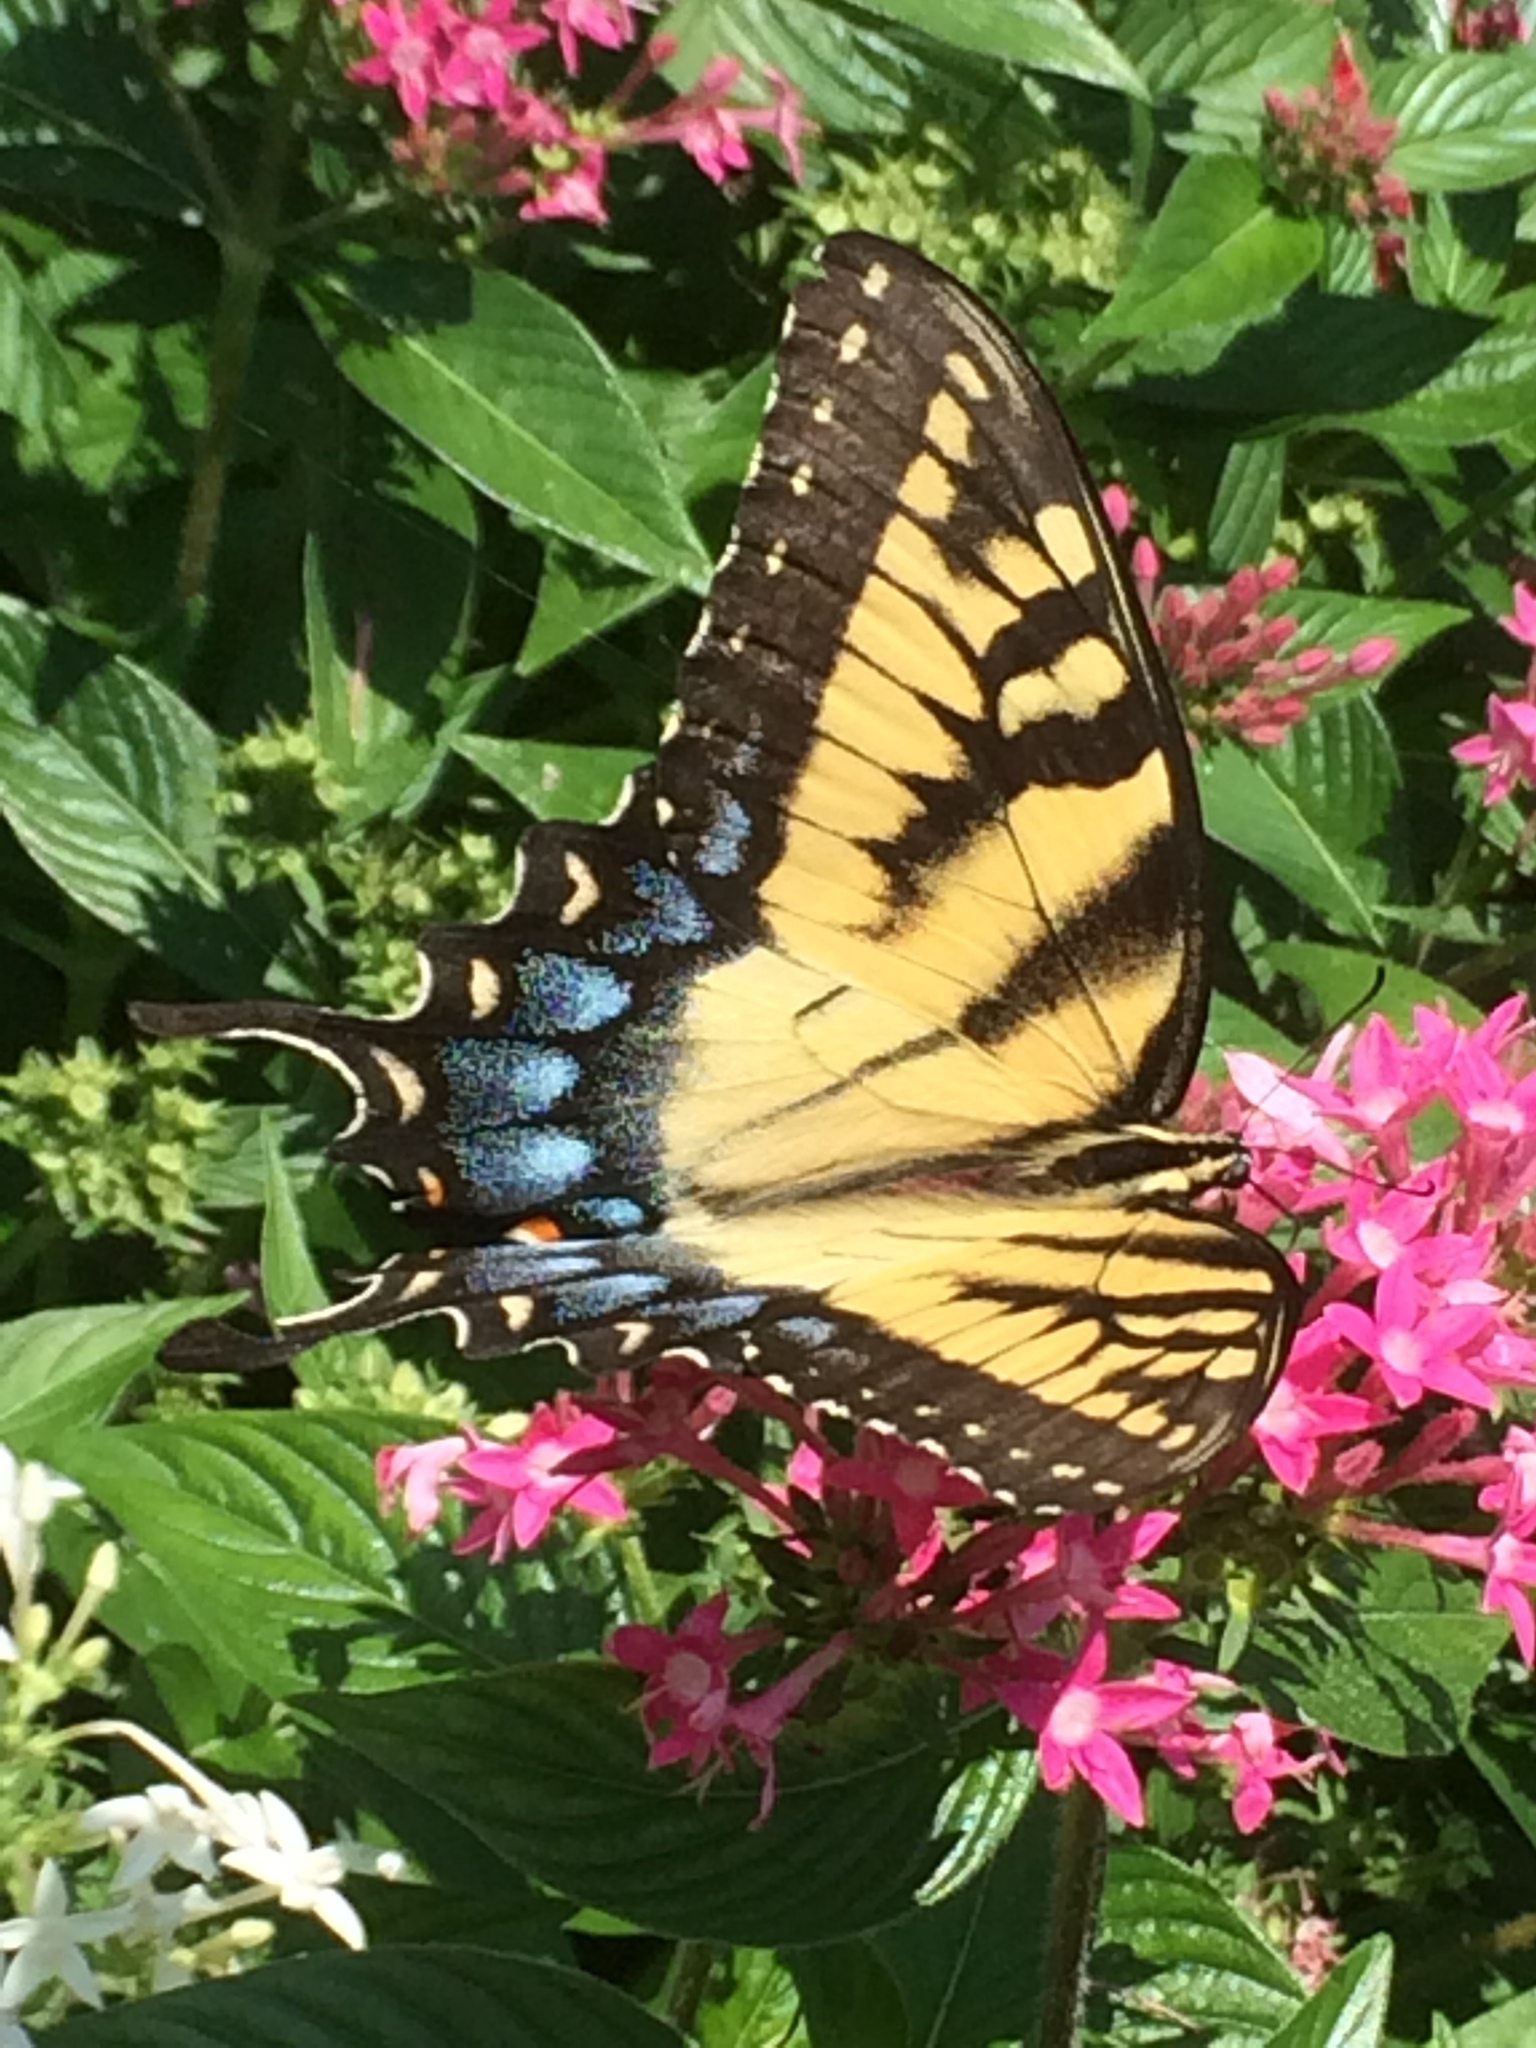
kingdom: Animalia
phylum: Arthropoda
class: Insecta
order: Lepidoptera
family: Papilionidae
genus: Papilio
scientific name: Papilio glaucus
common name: Tiger swallowtail
